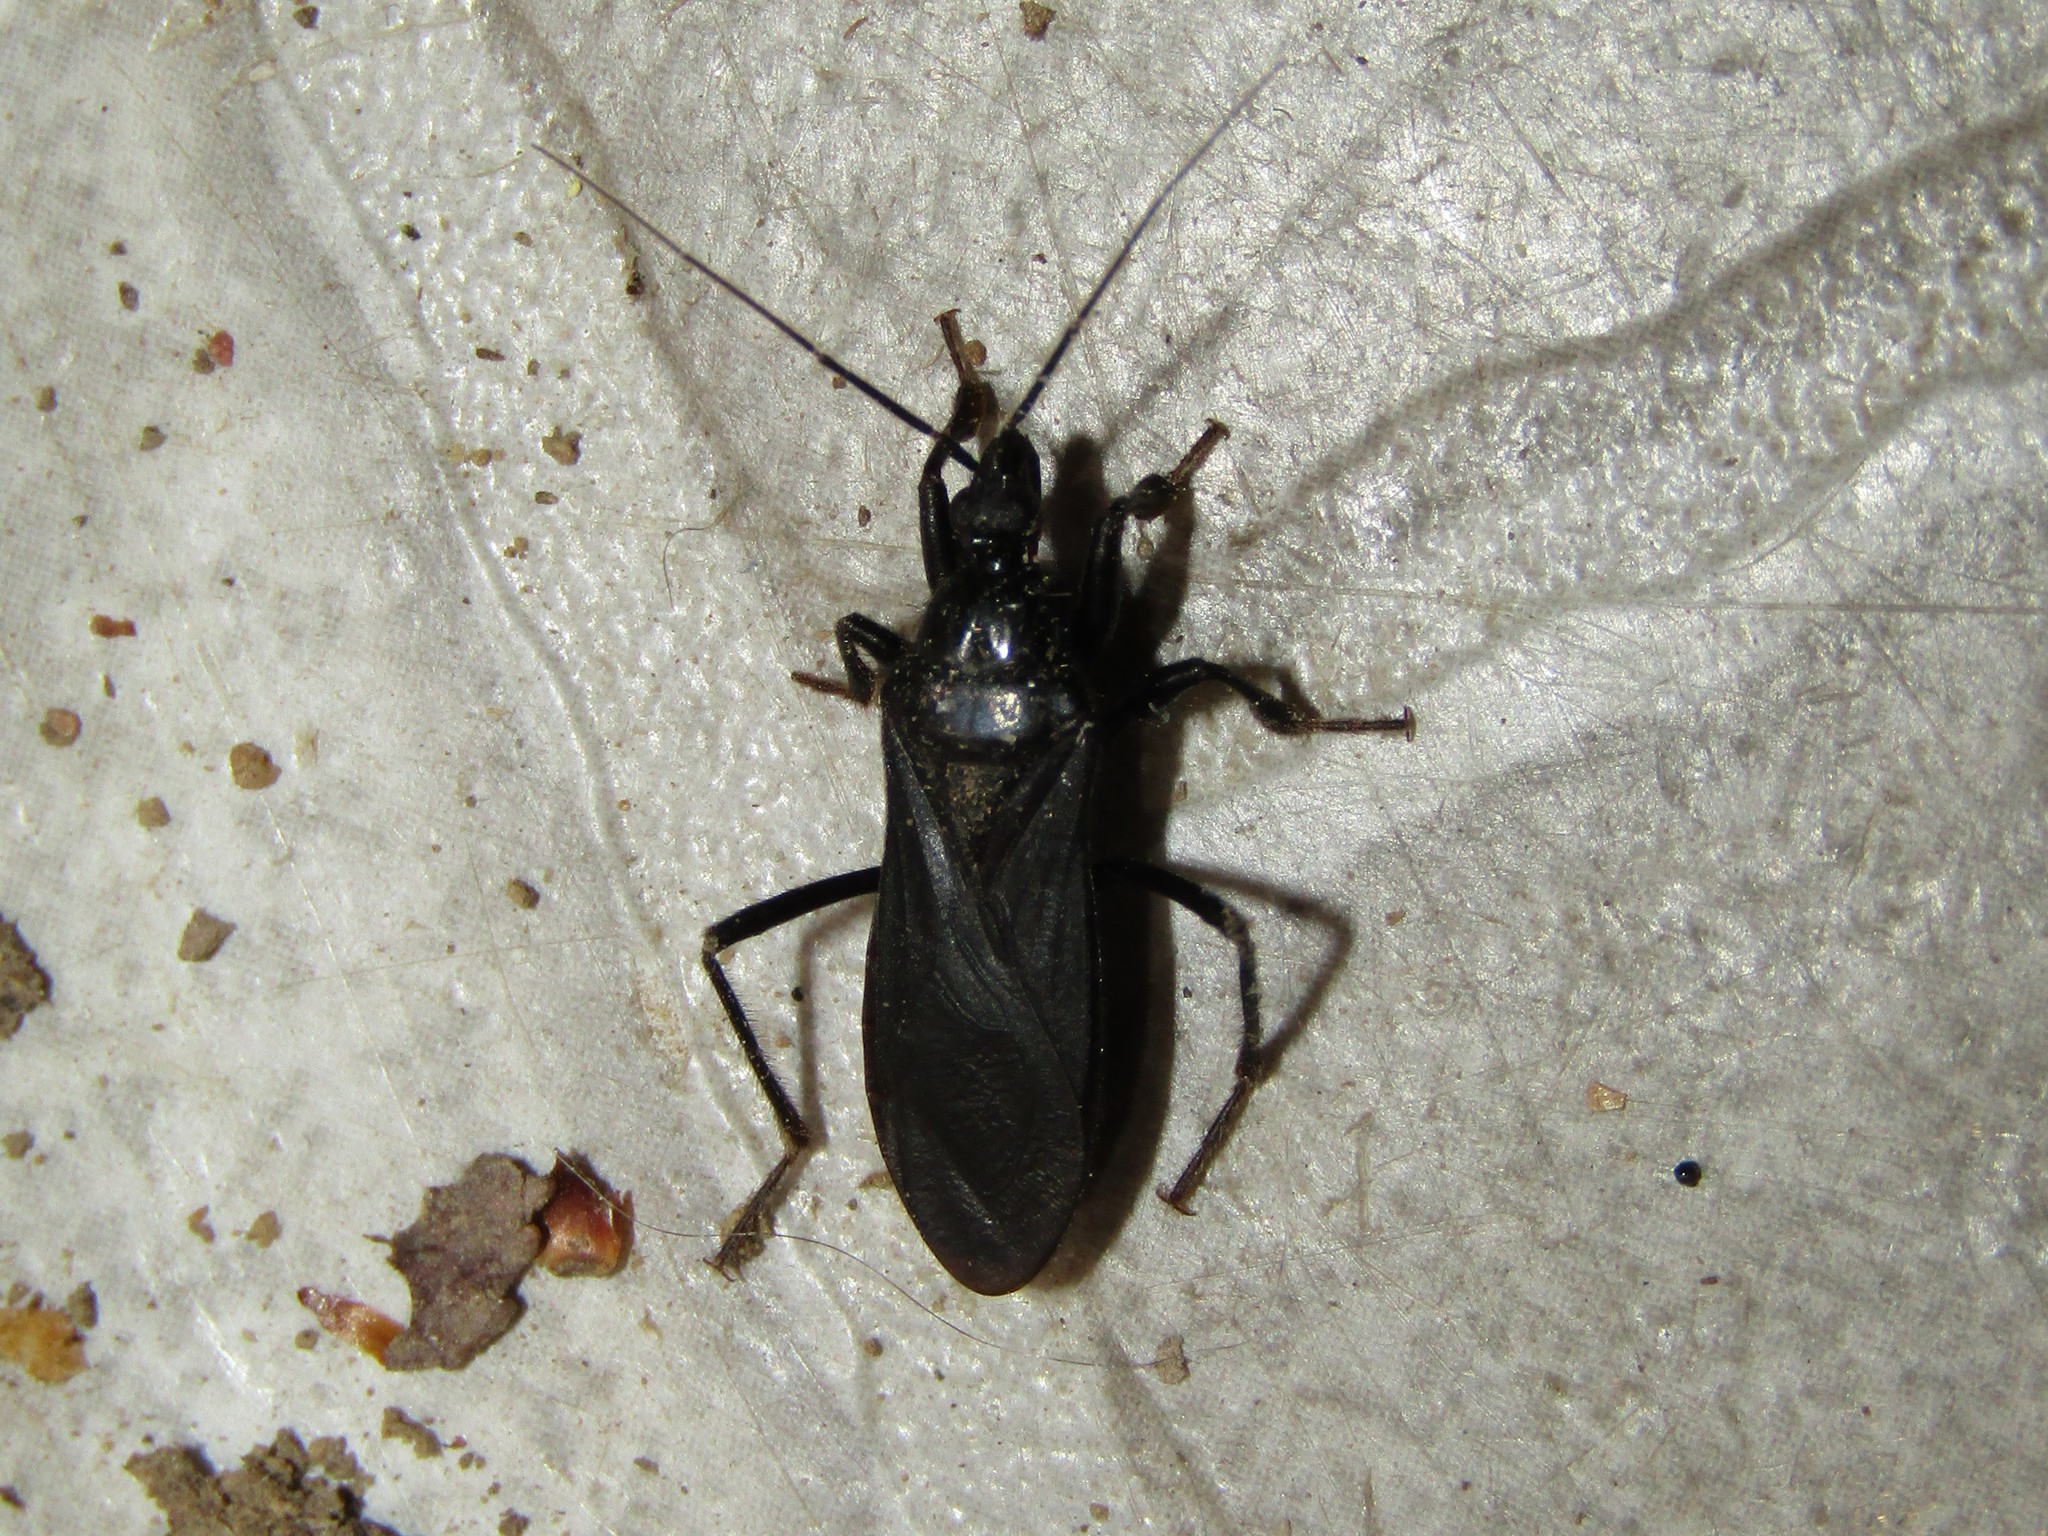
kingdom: Animalia
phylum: Arthropoda
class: Insecta
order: Hemiptera
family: Reduviidae
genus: Melanolestes
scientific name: Melanolestes picipes
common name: Assassin bug
